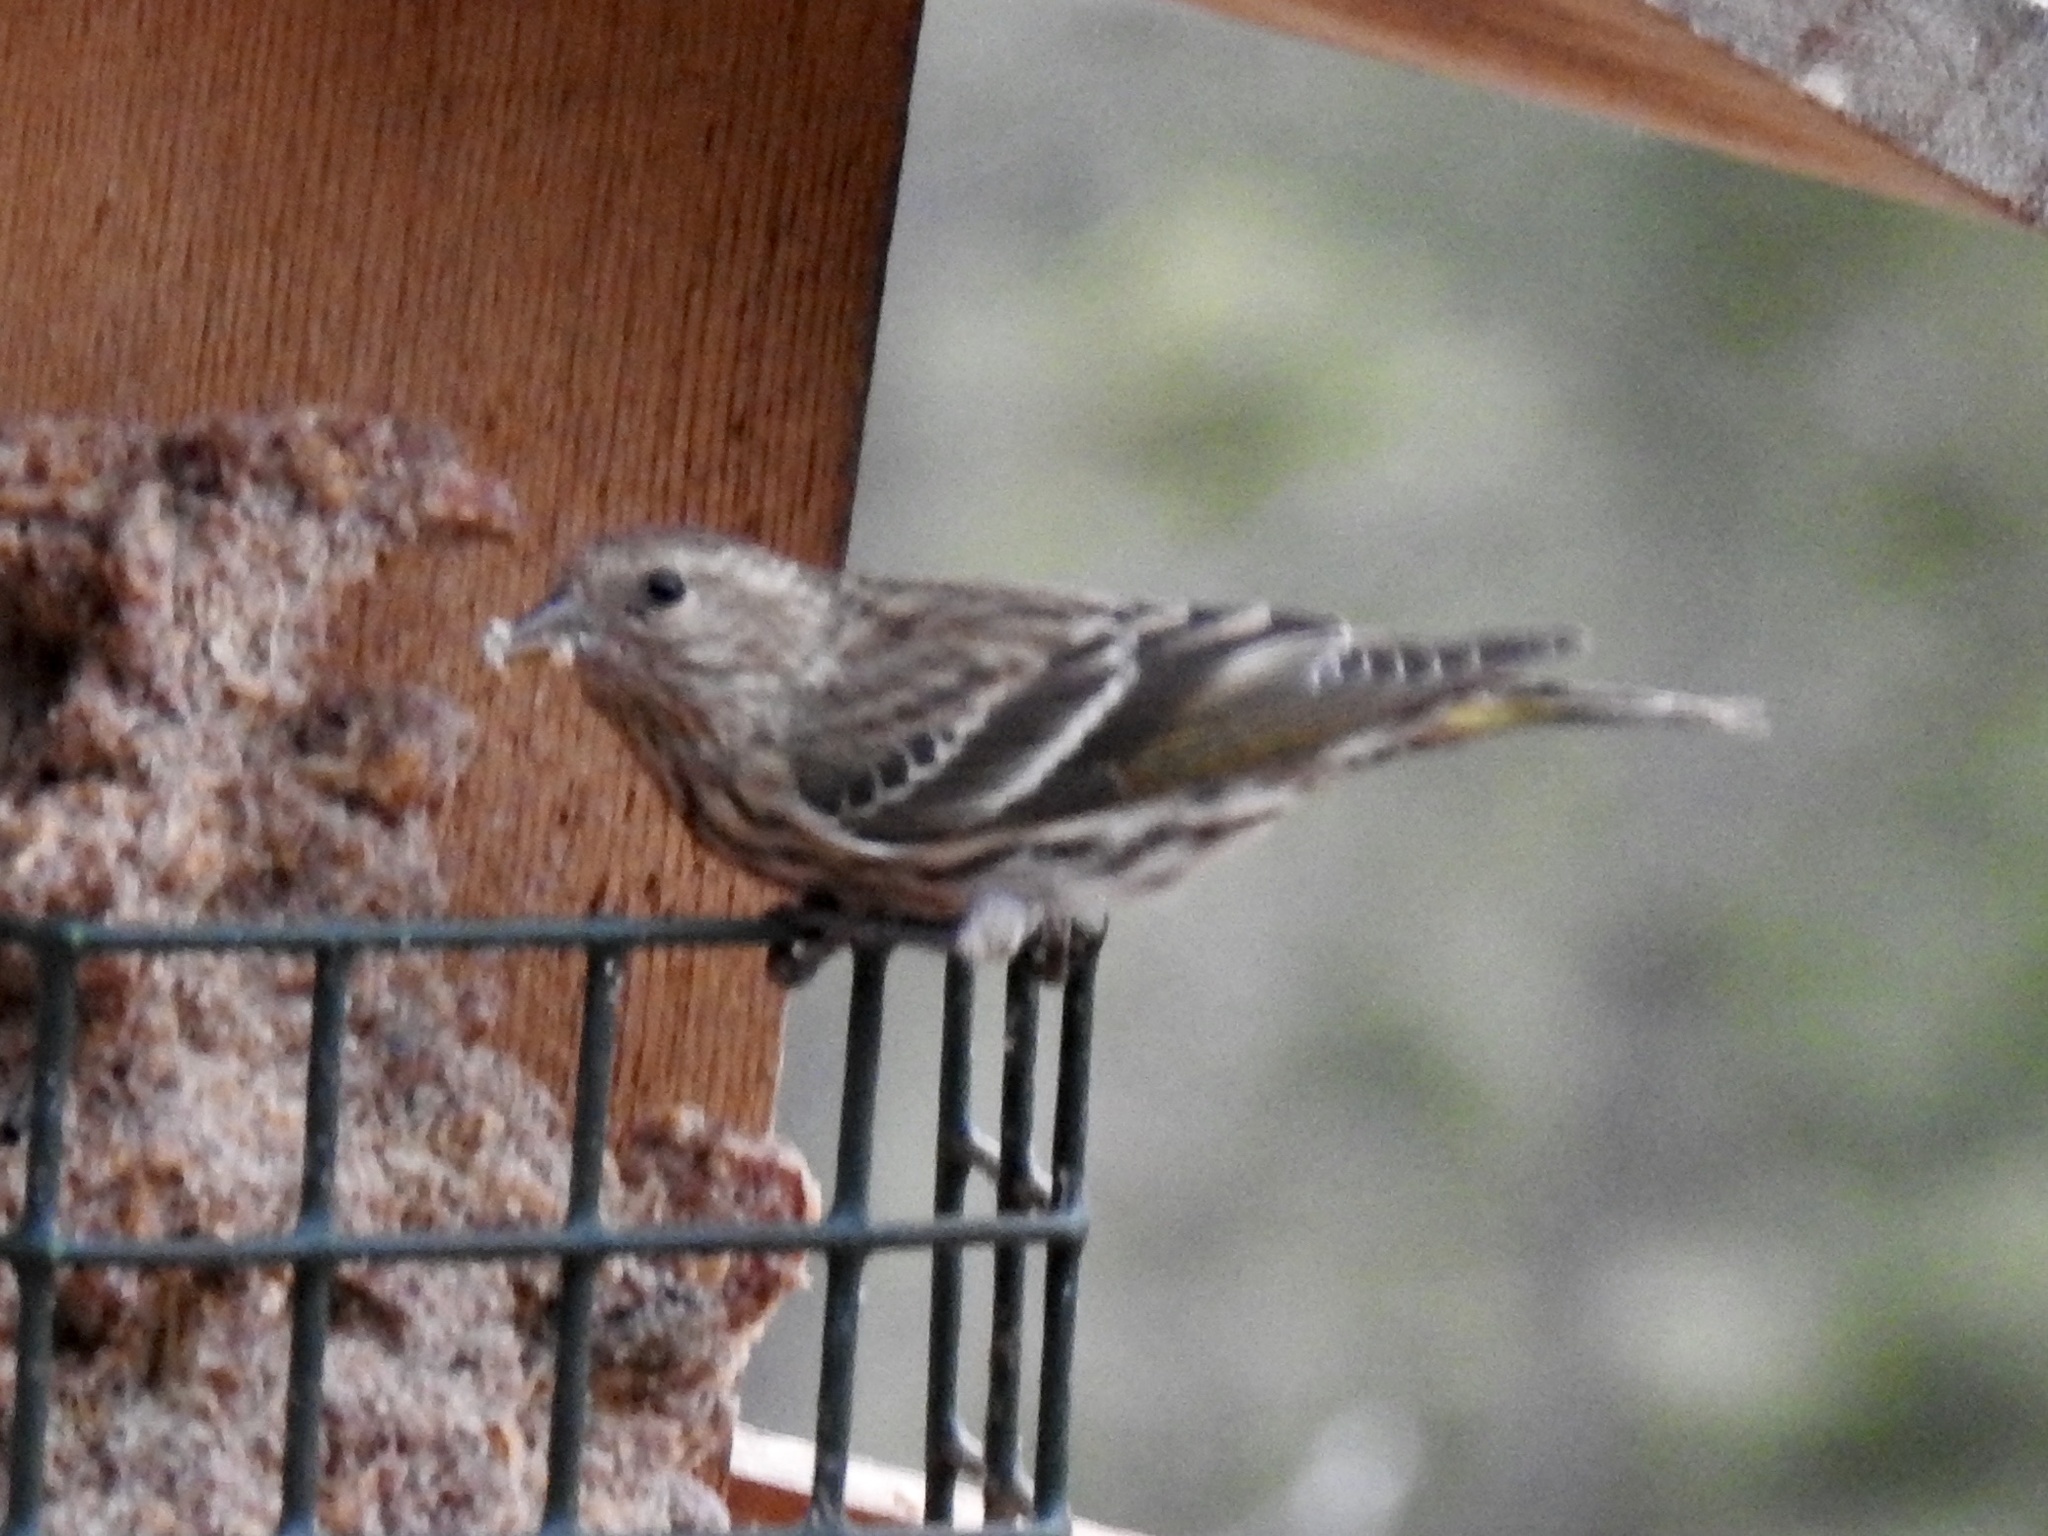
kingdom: Animalia
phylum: Chordata
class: Aves
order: Passeriformes
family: Fringillidae
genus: Spinus
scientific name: Spinus pinus
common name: Pine siskin
